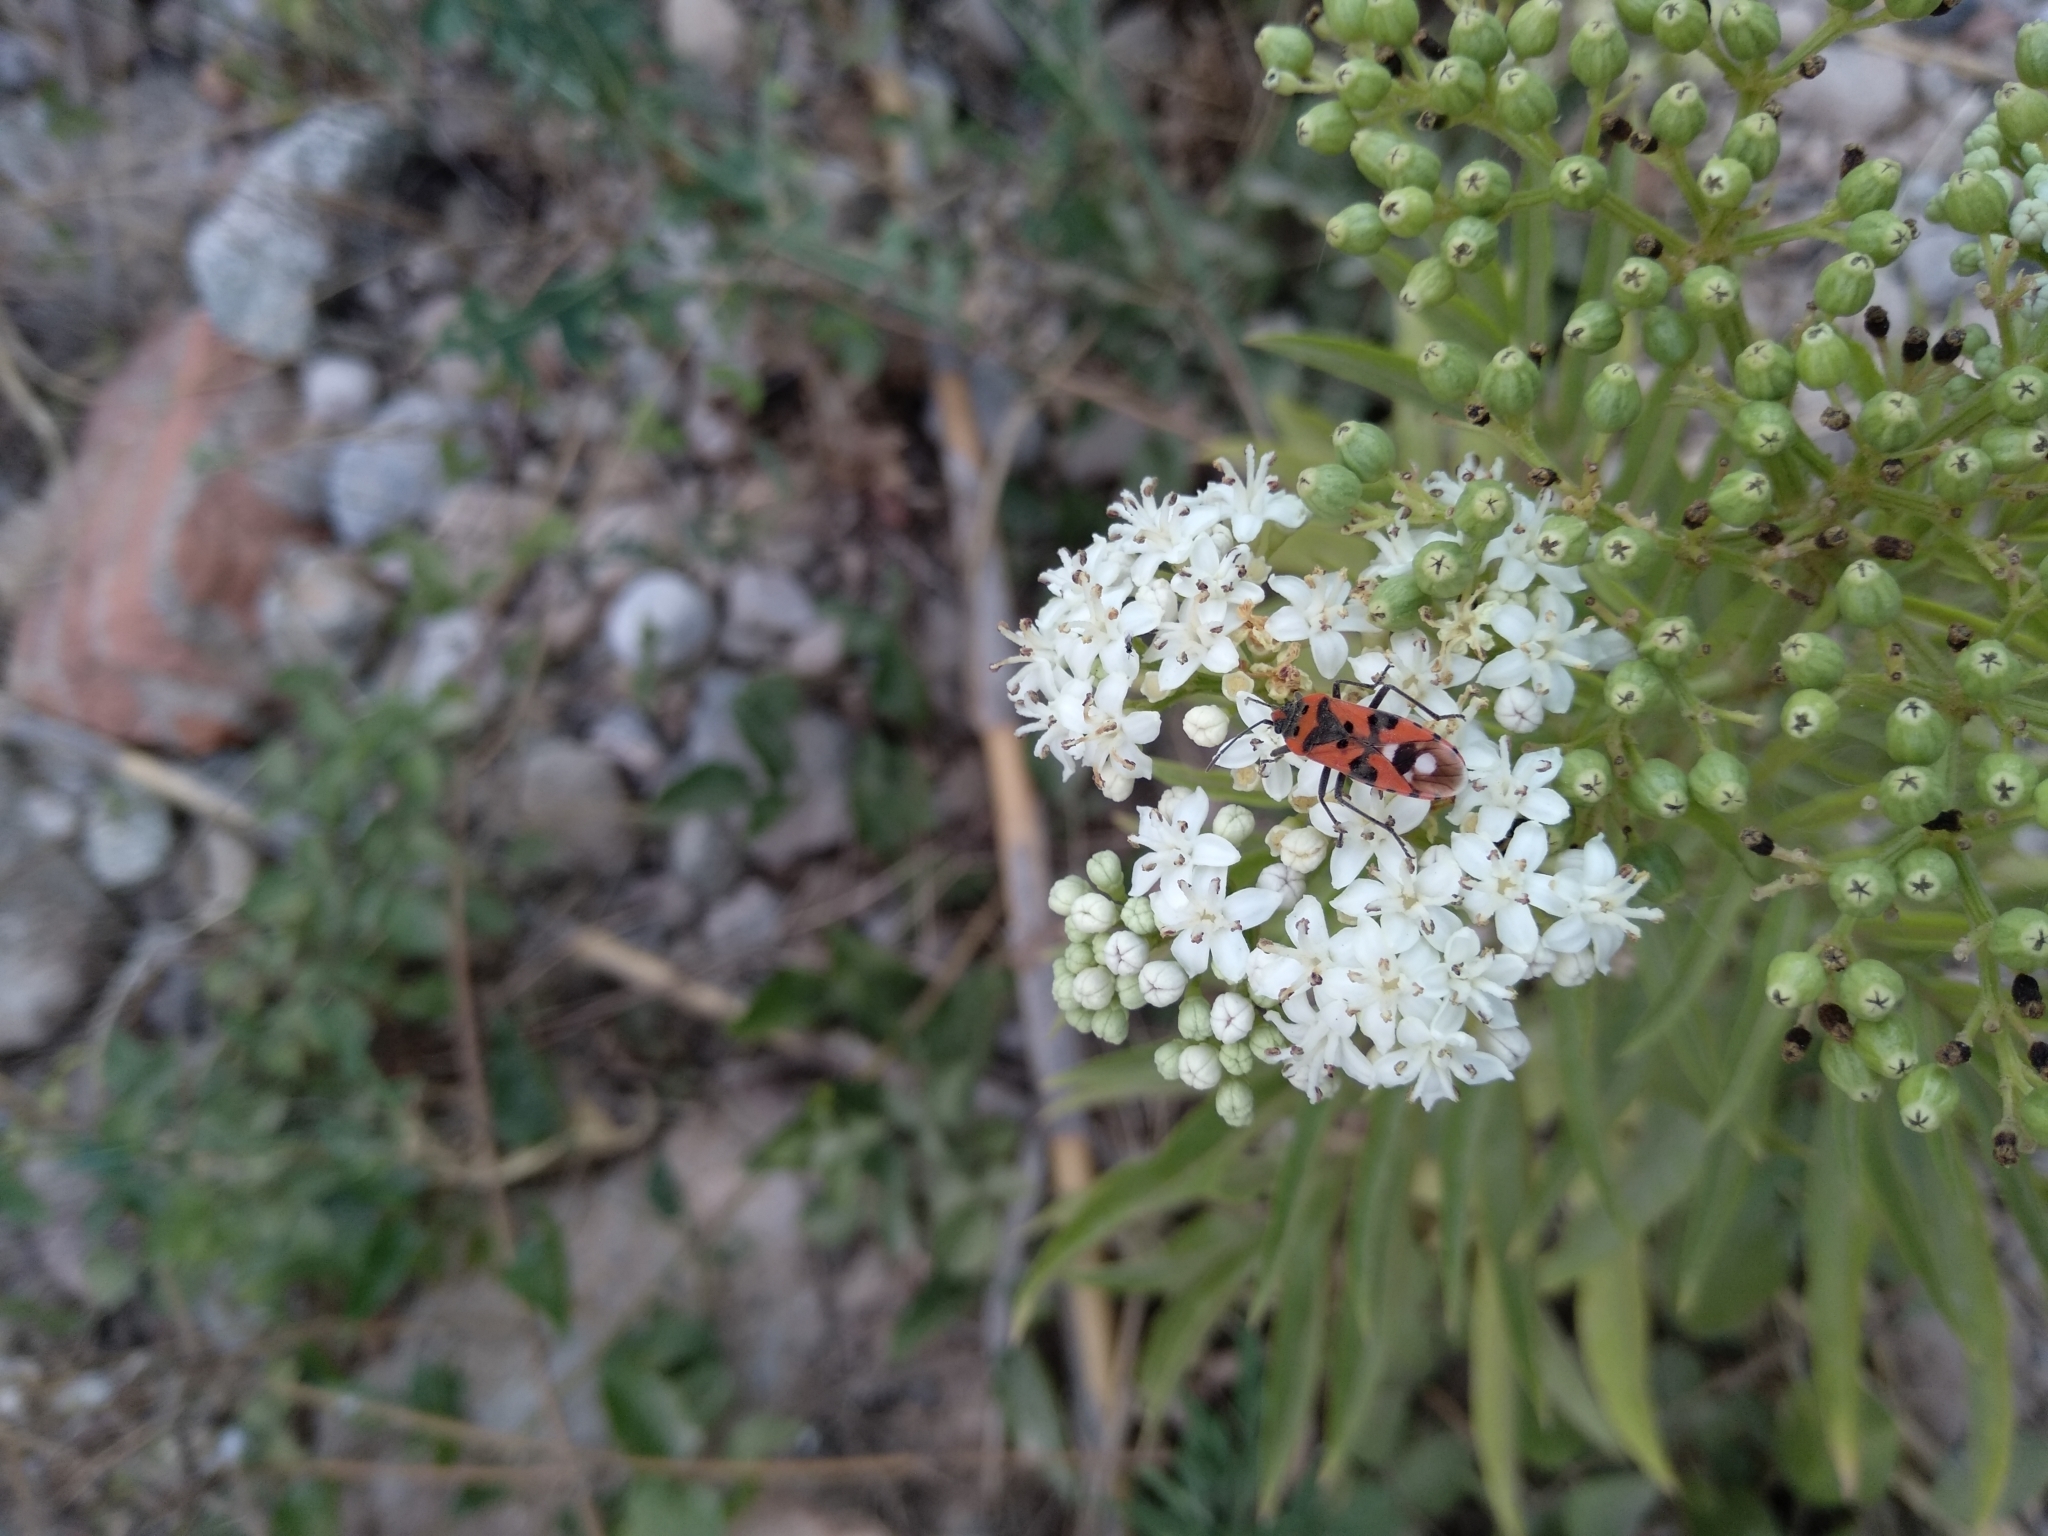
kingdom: Animalia
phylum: Arthropoda
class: Insecta
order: Hemiptera
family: Lygaeidae
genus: Lygaeus
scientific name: Lygaeus equestris
